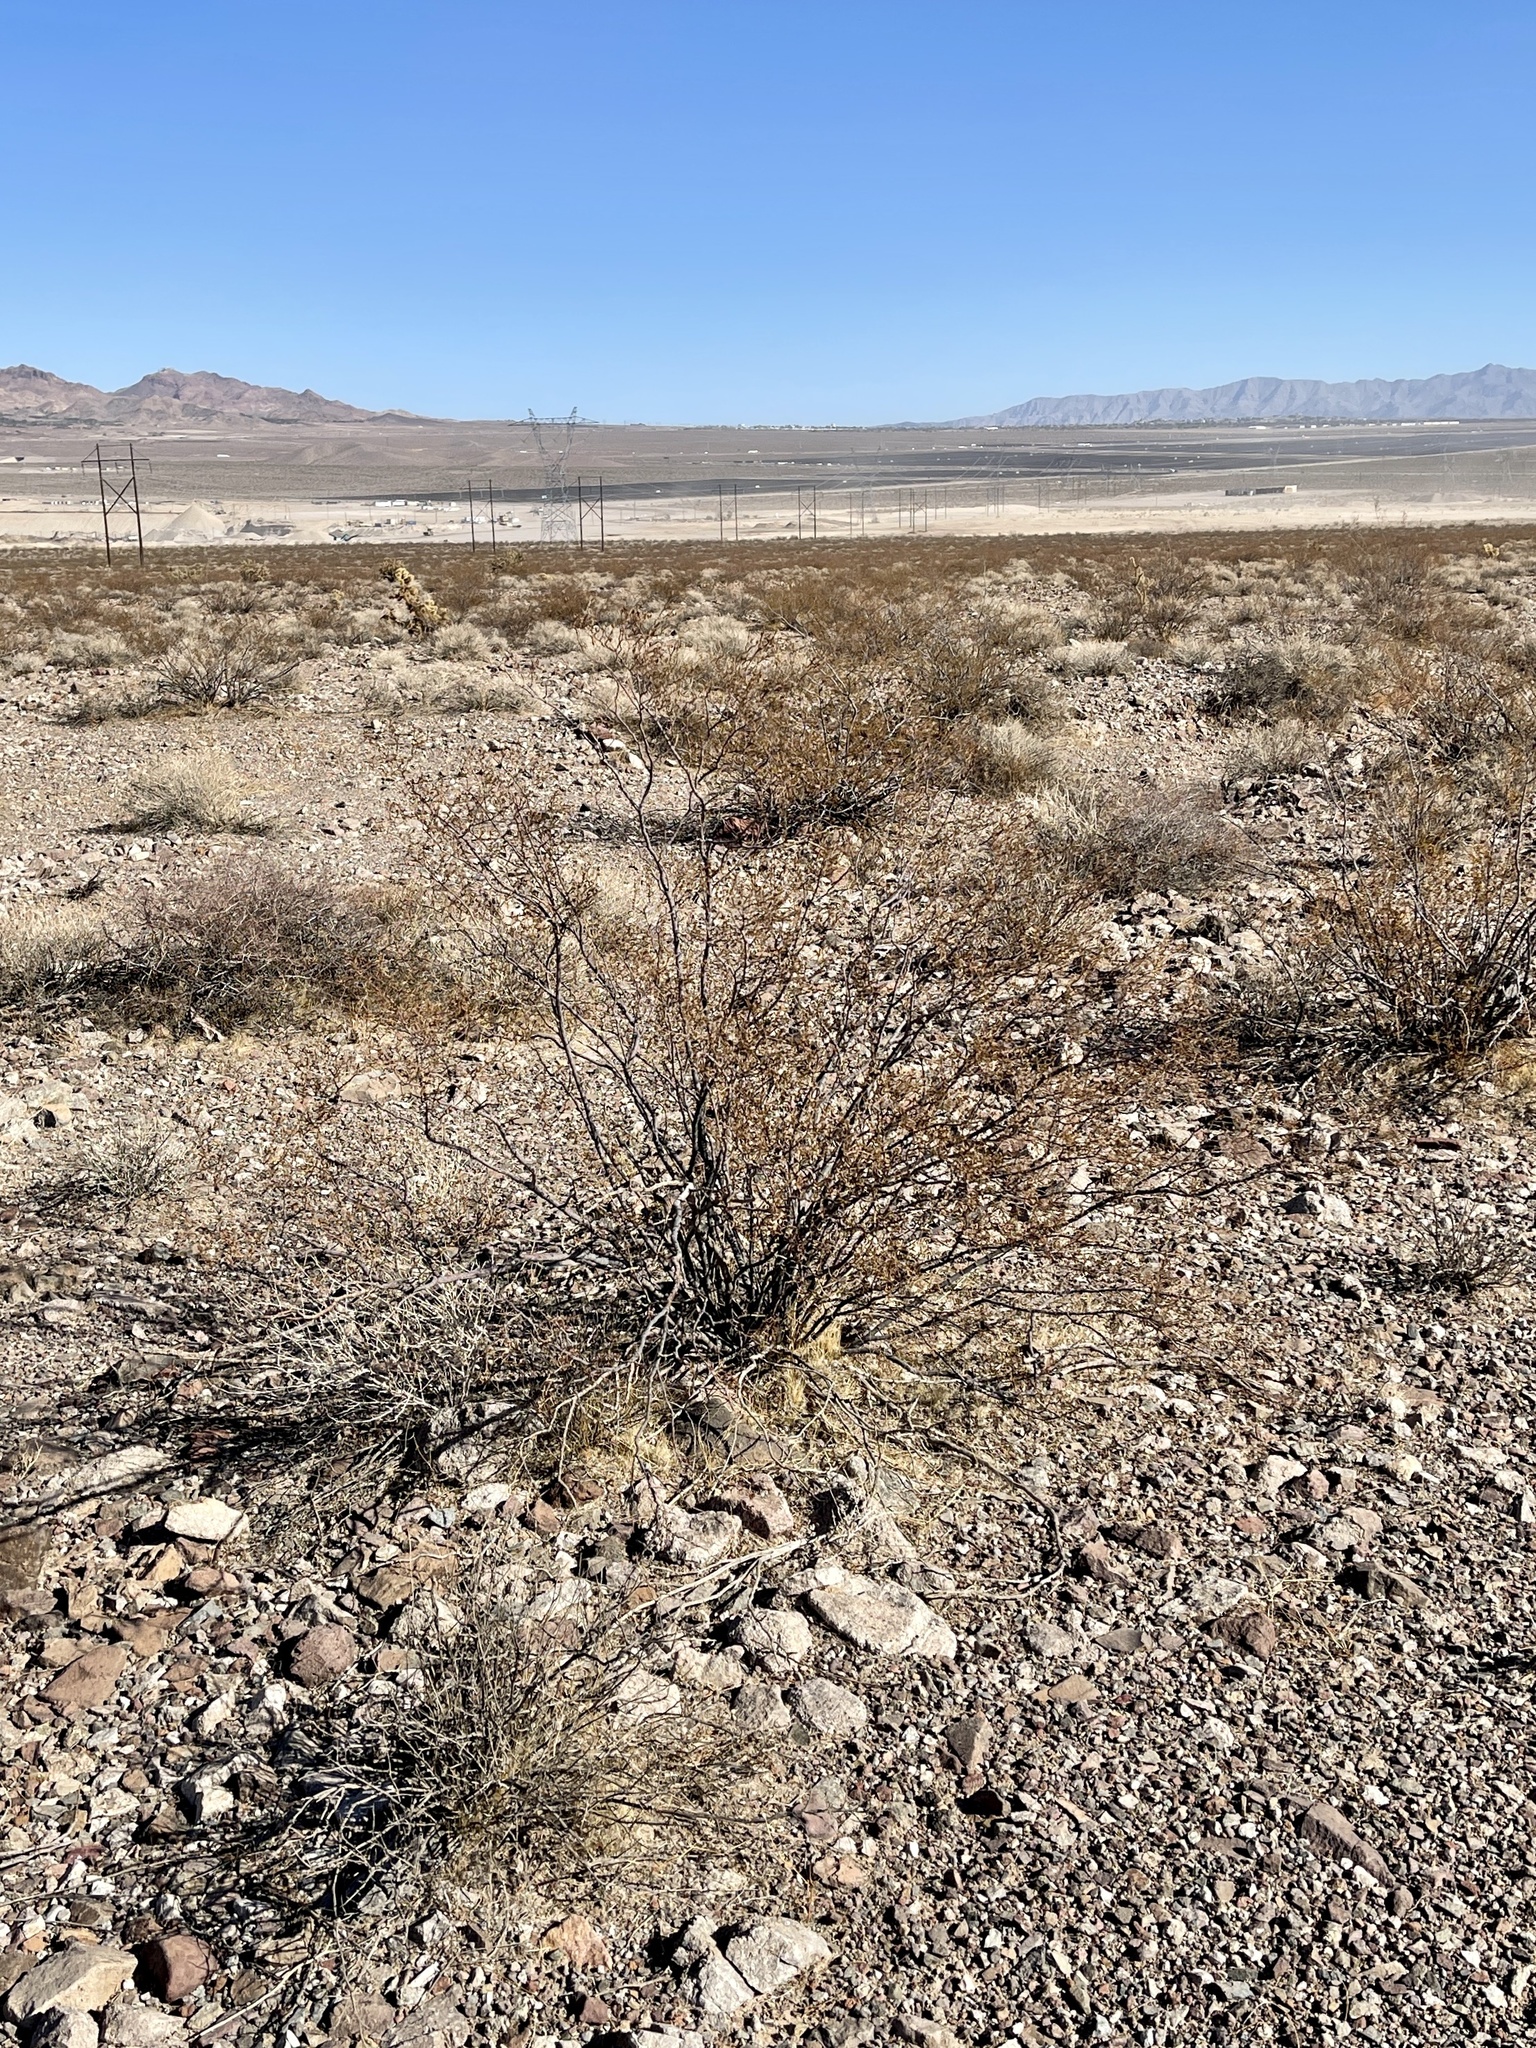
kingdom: Plantae
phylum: Tracheophyta
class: Magnoliopsida
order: Zygophyllales
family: Zygophyllaceae
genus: Larrea
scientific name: Larrea tridentata
